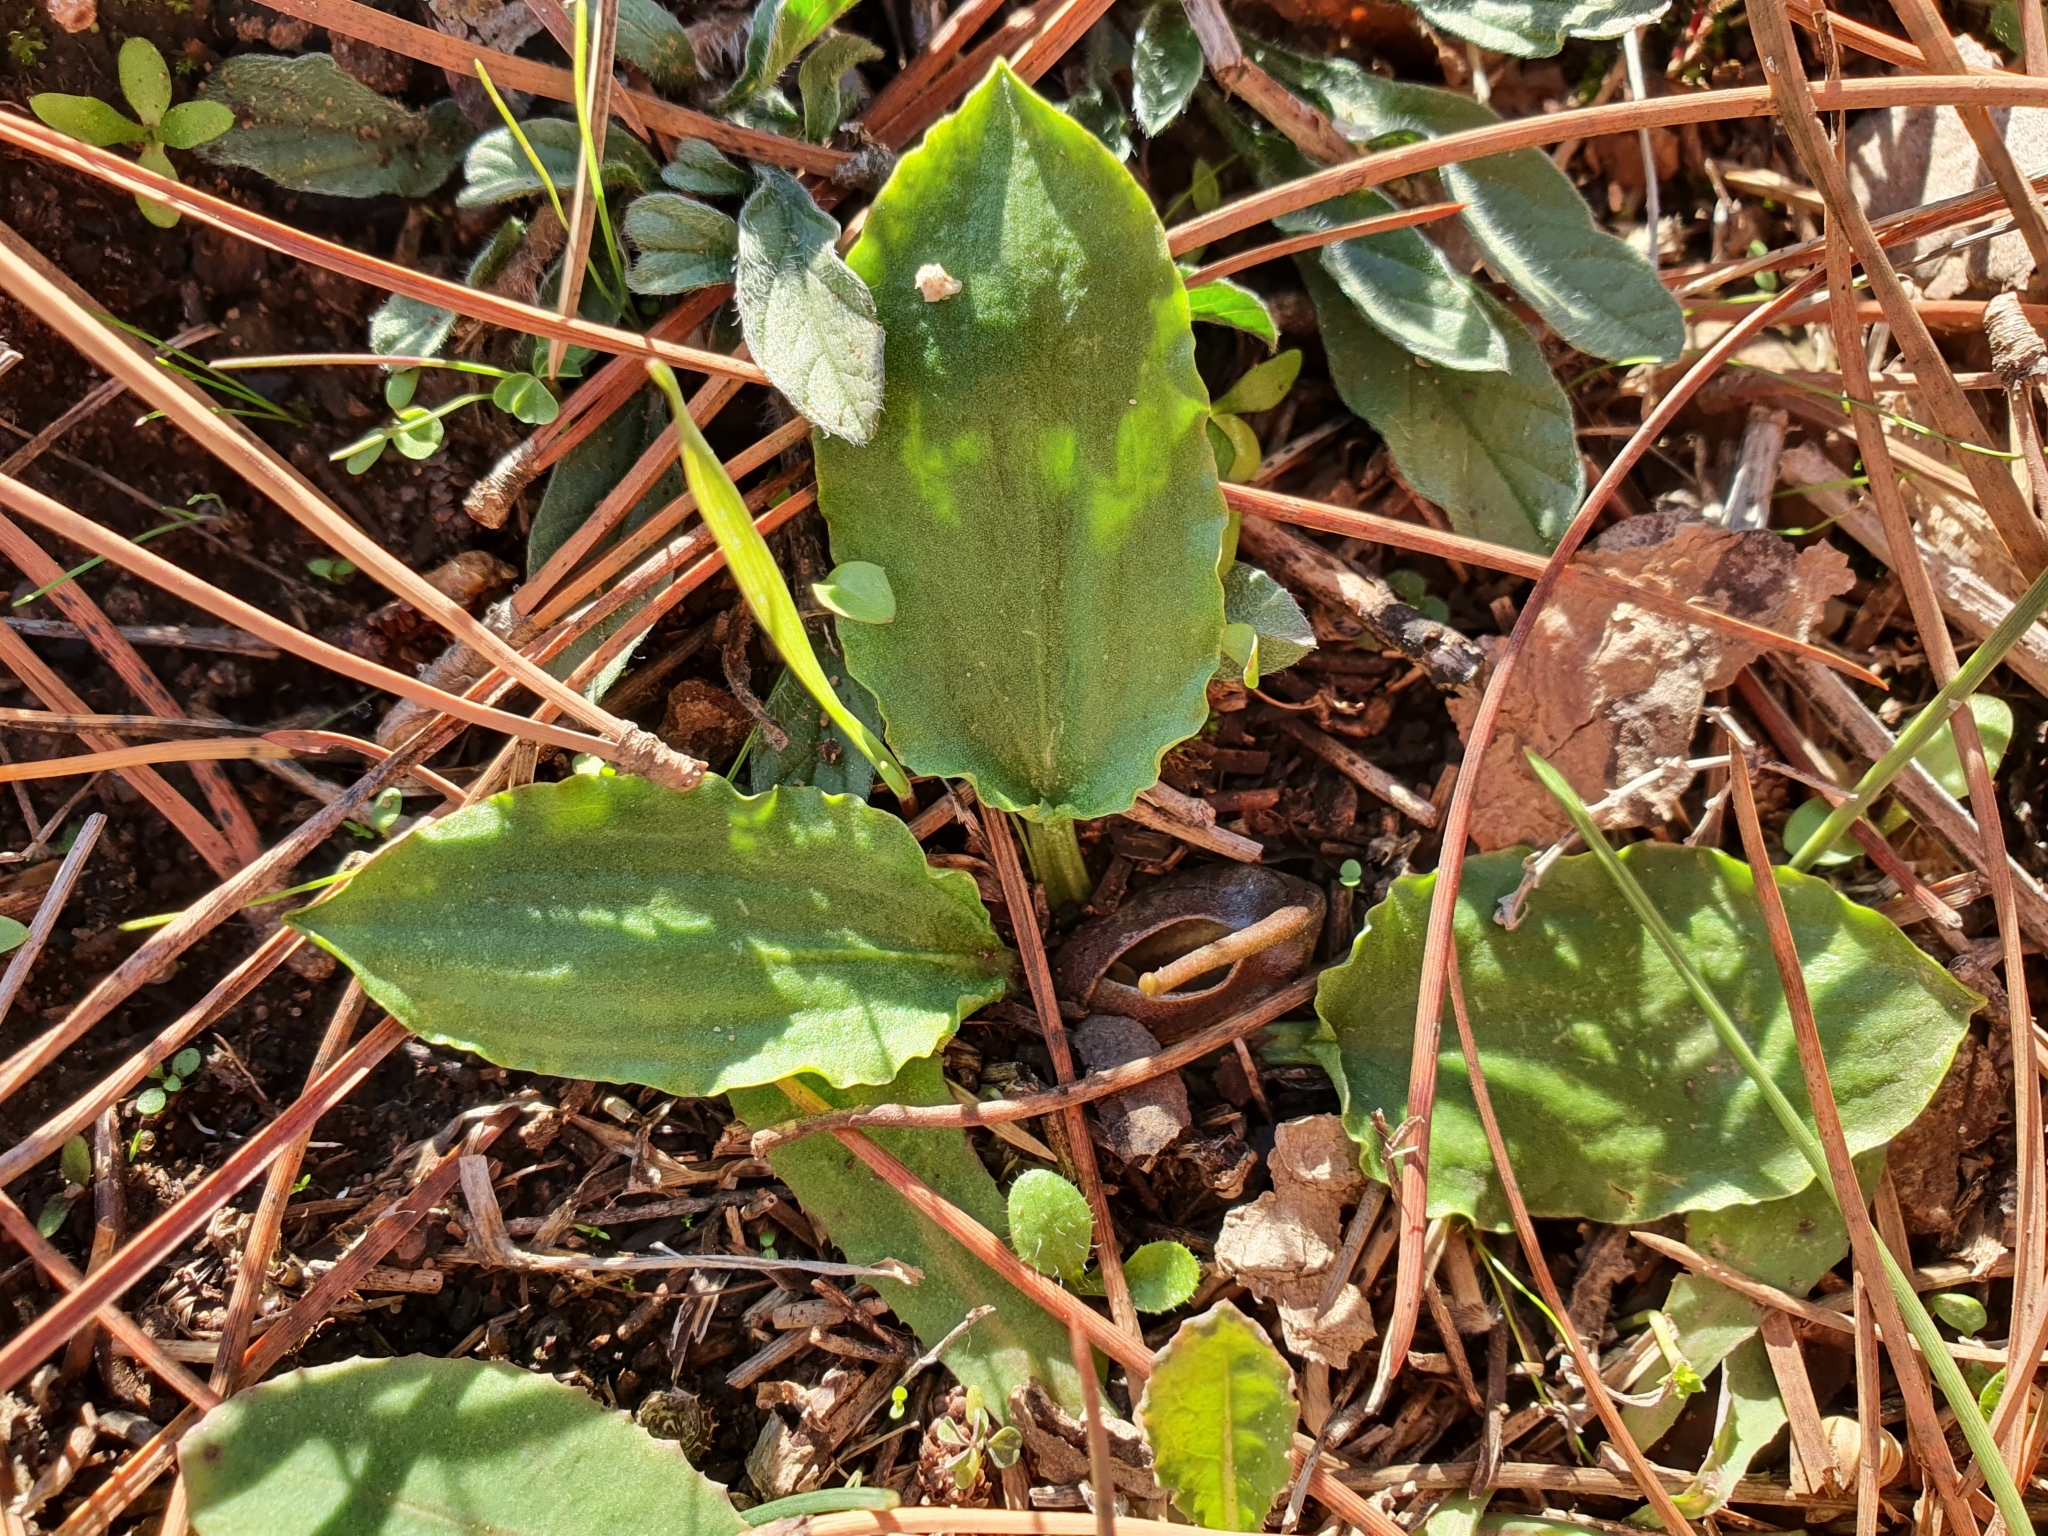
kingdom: Plantae
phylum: Tracheophyta
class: Liliopsida
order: Alismatales
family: Araceae
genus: Ambrosina
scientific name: Ambrosina bassii
